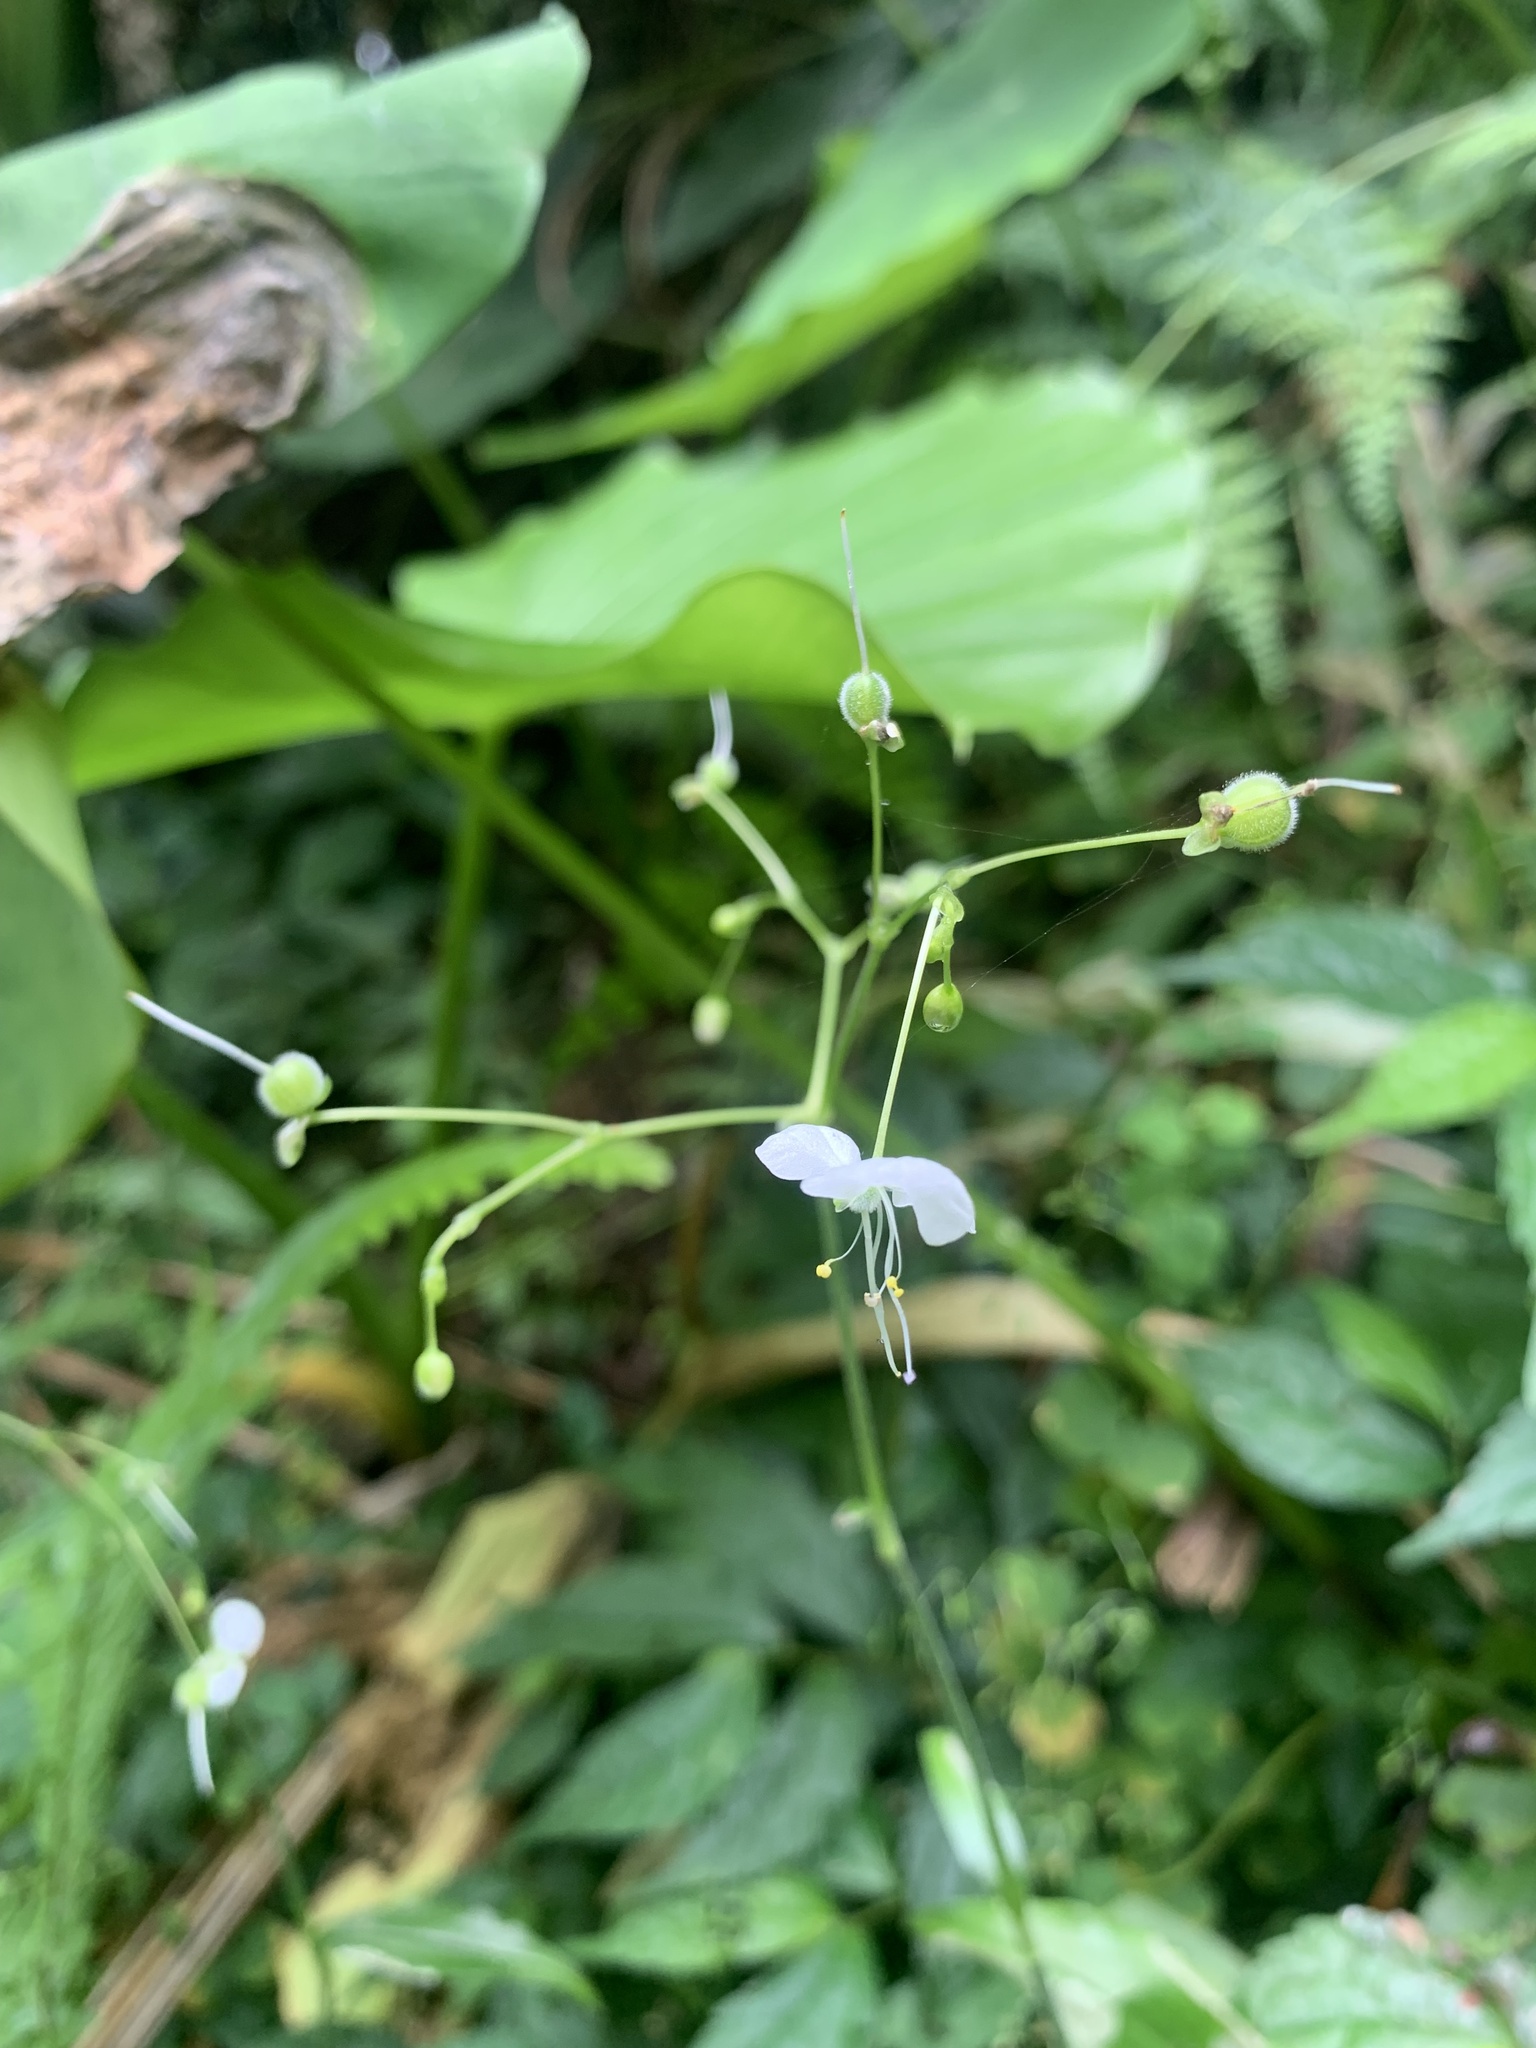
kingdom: Plantae
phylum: Tracheophyta
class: Liliopsida
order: Commelinales
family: Commelinaceae
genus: Rhopalephora
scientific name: Rhopalephora scaberrima
